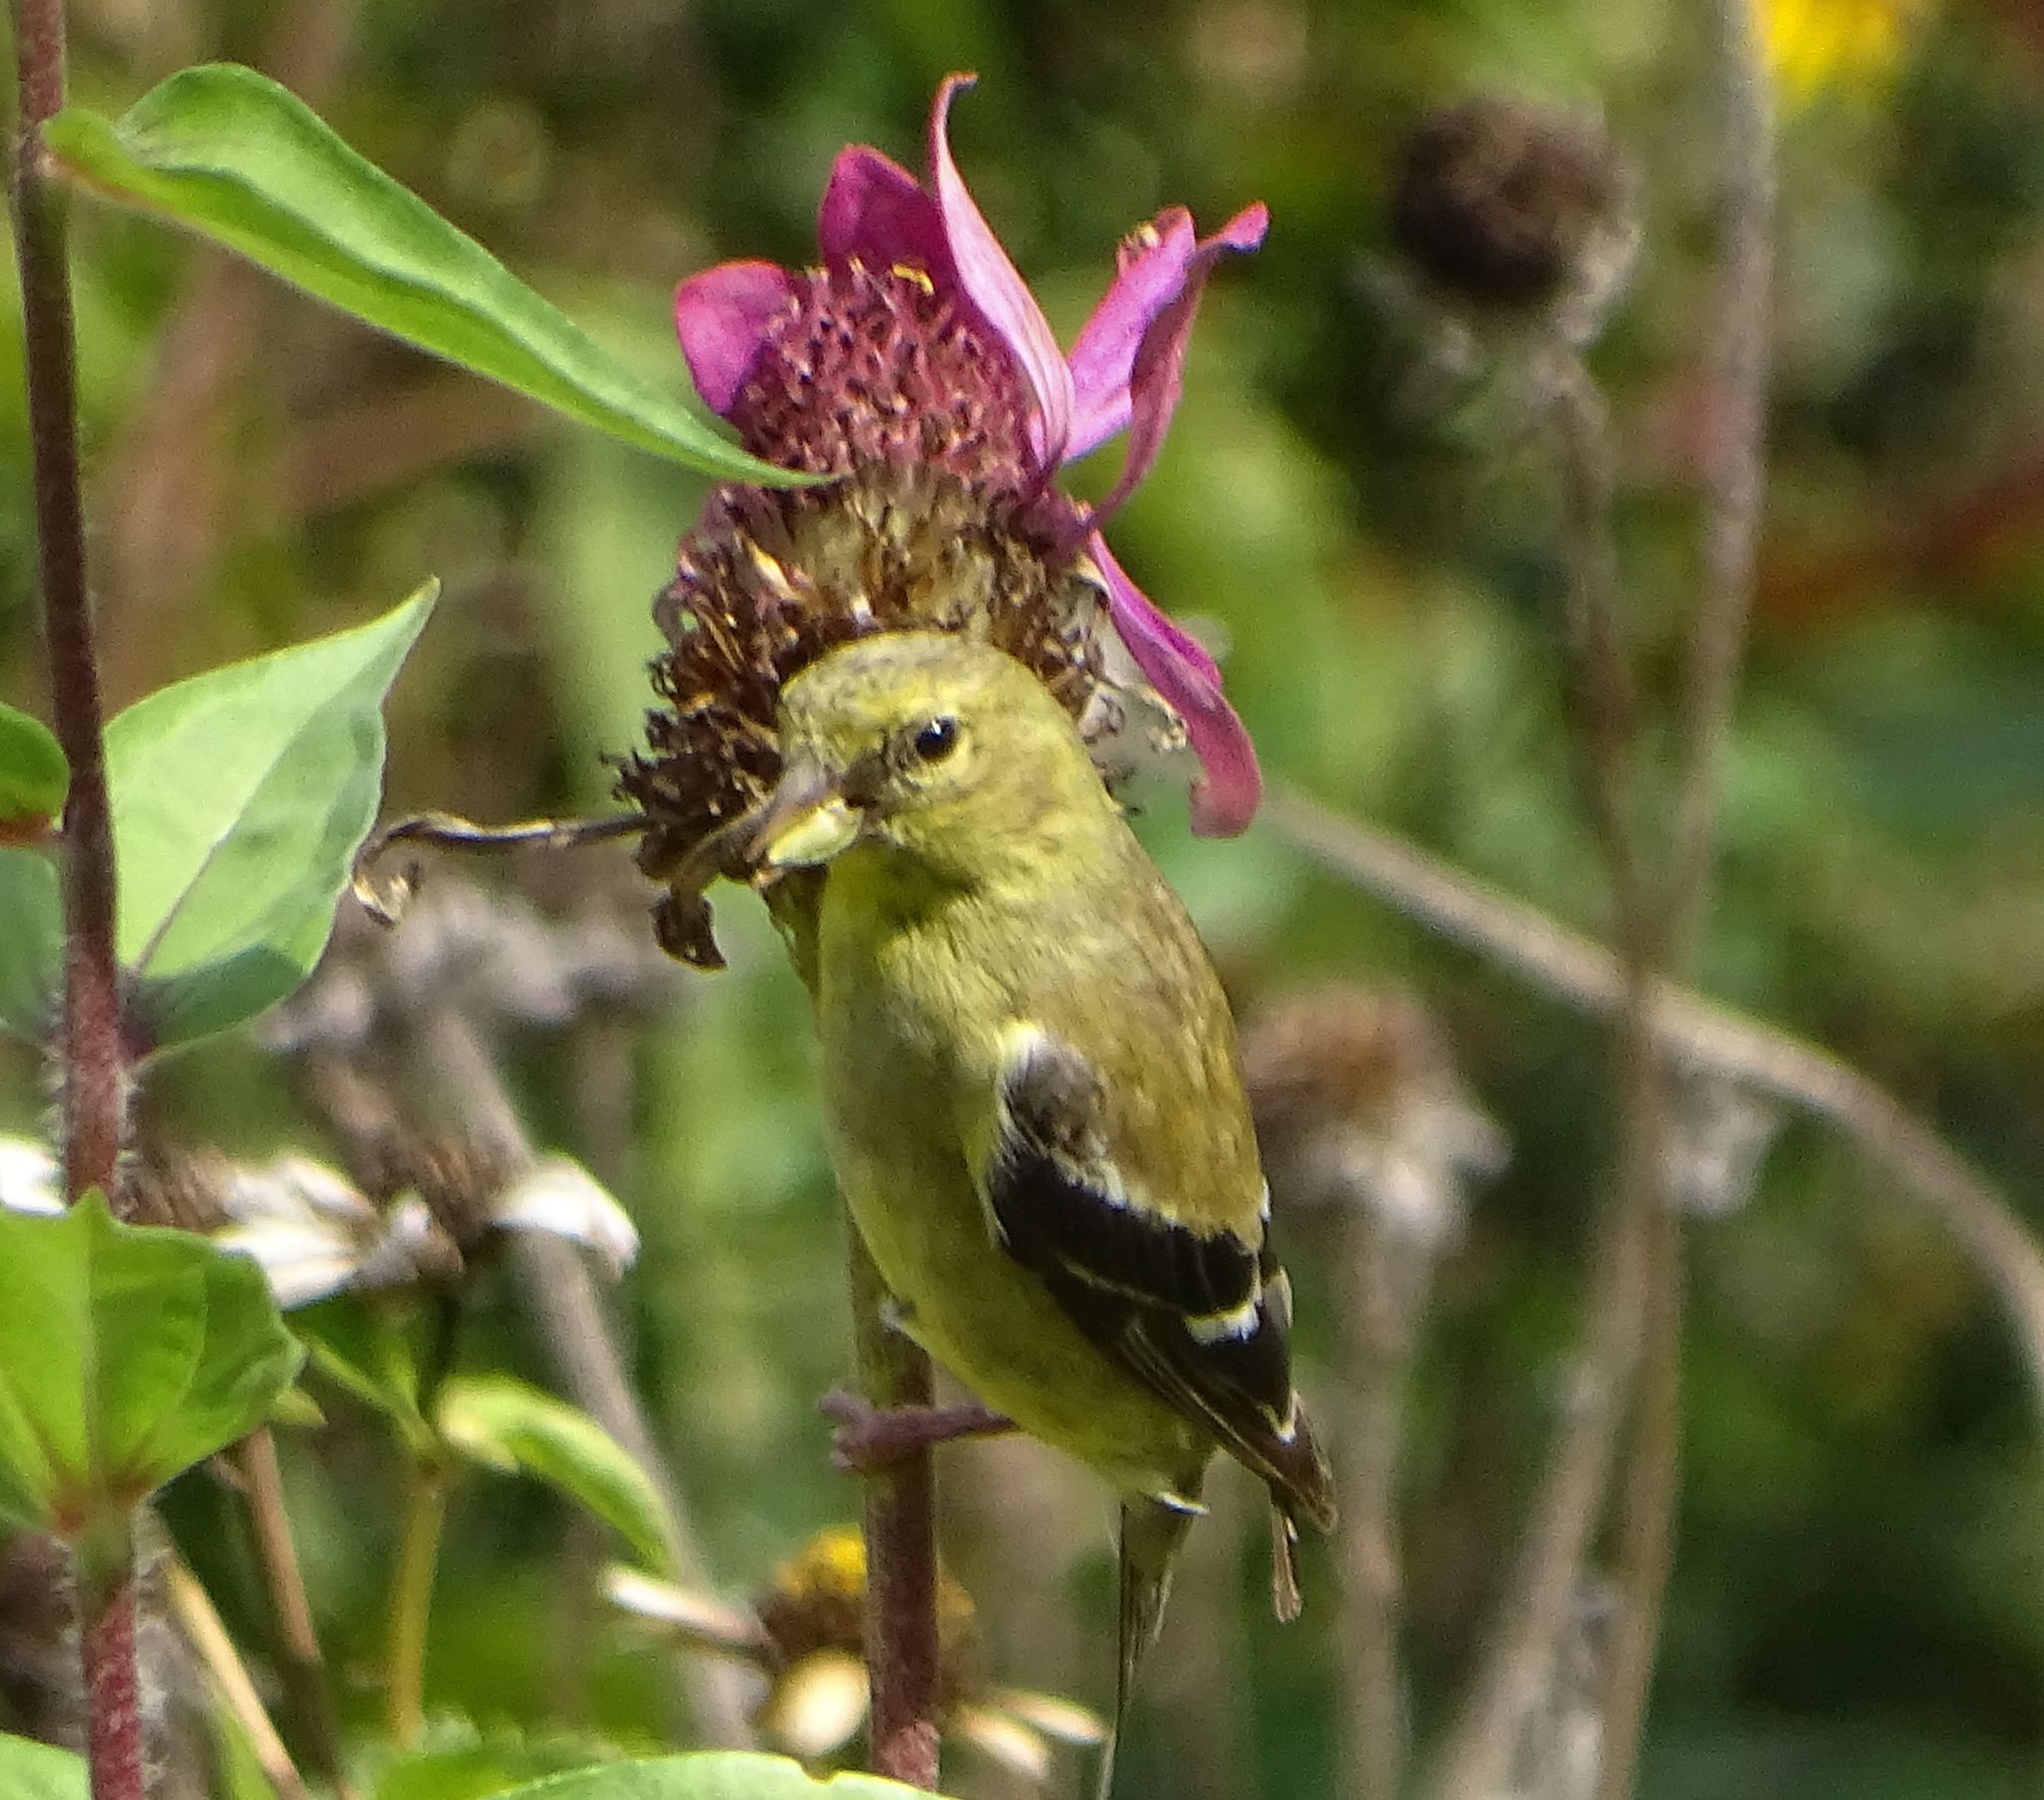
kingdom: Animalia
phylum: Chordata
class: Aves
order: Passeriformes
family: Fringillidae
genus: Spinus
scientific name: Spinus tristis
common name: American goldfinch
